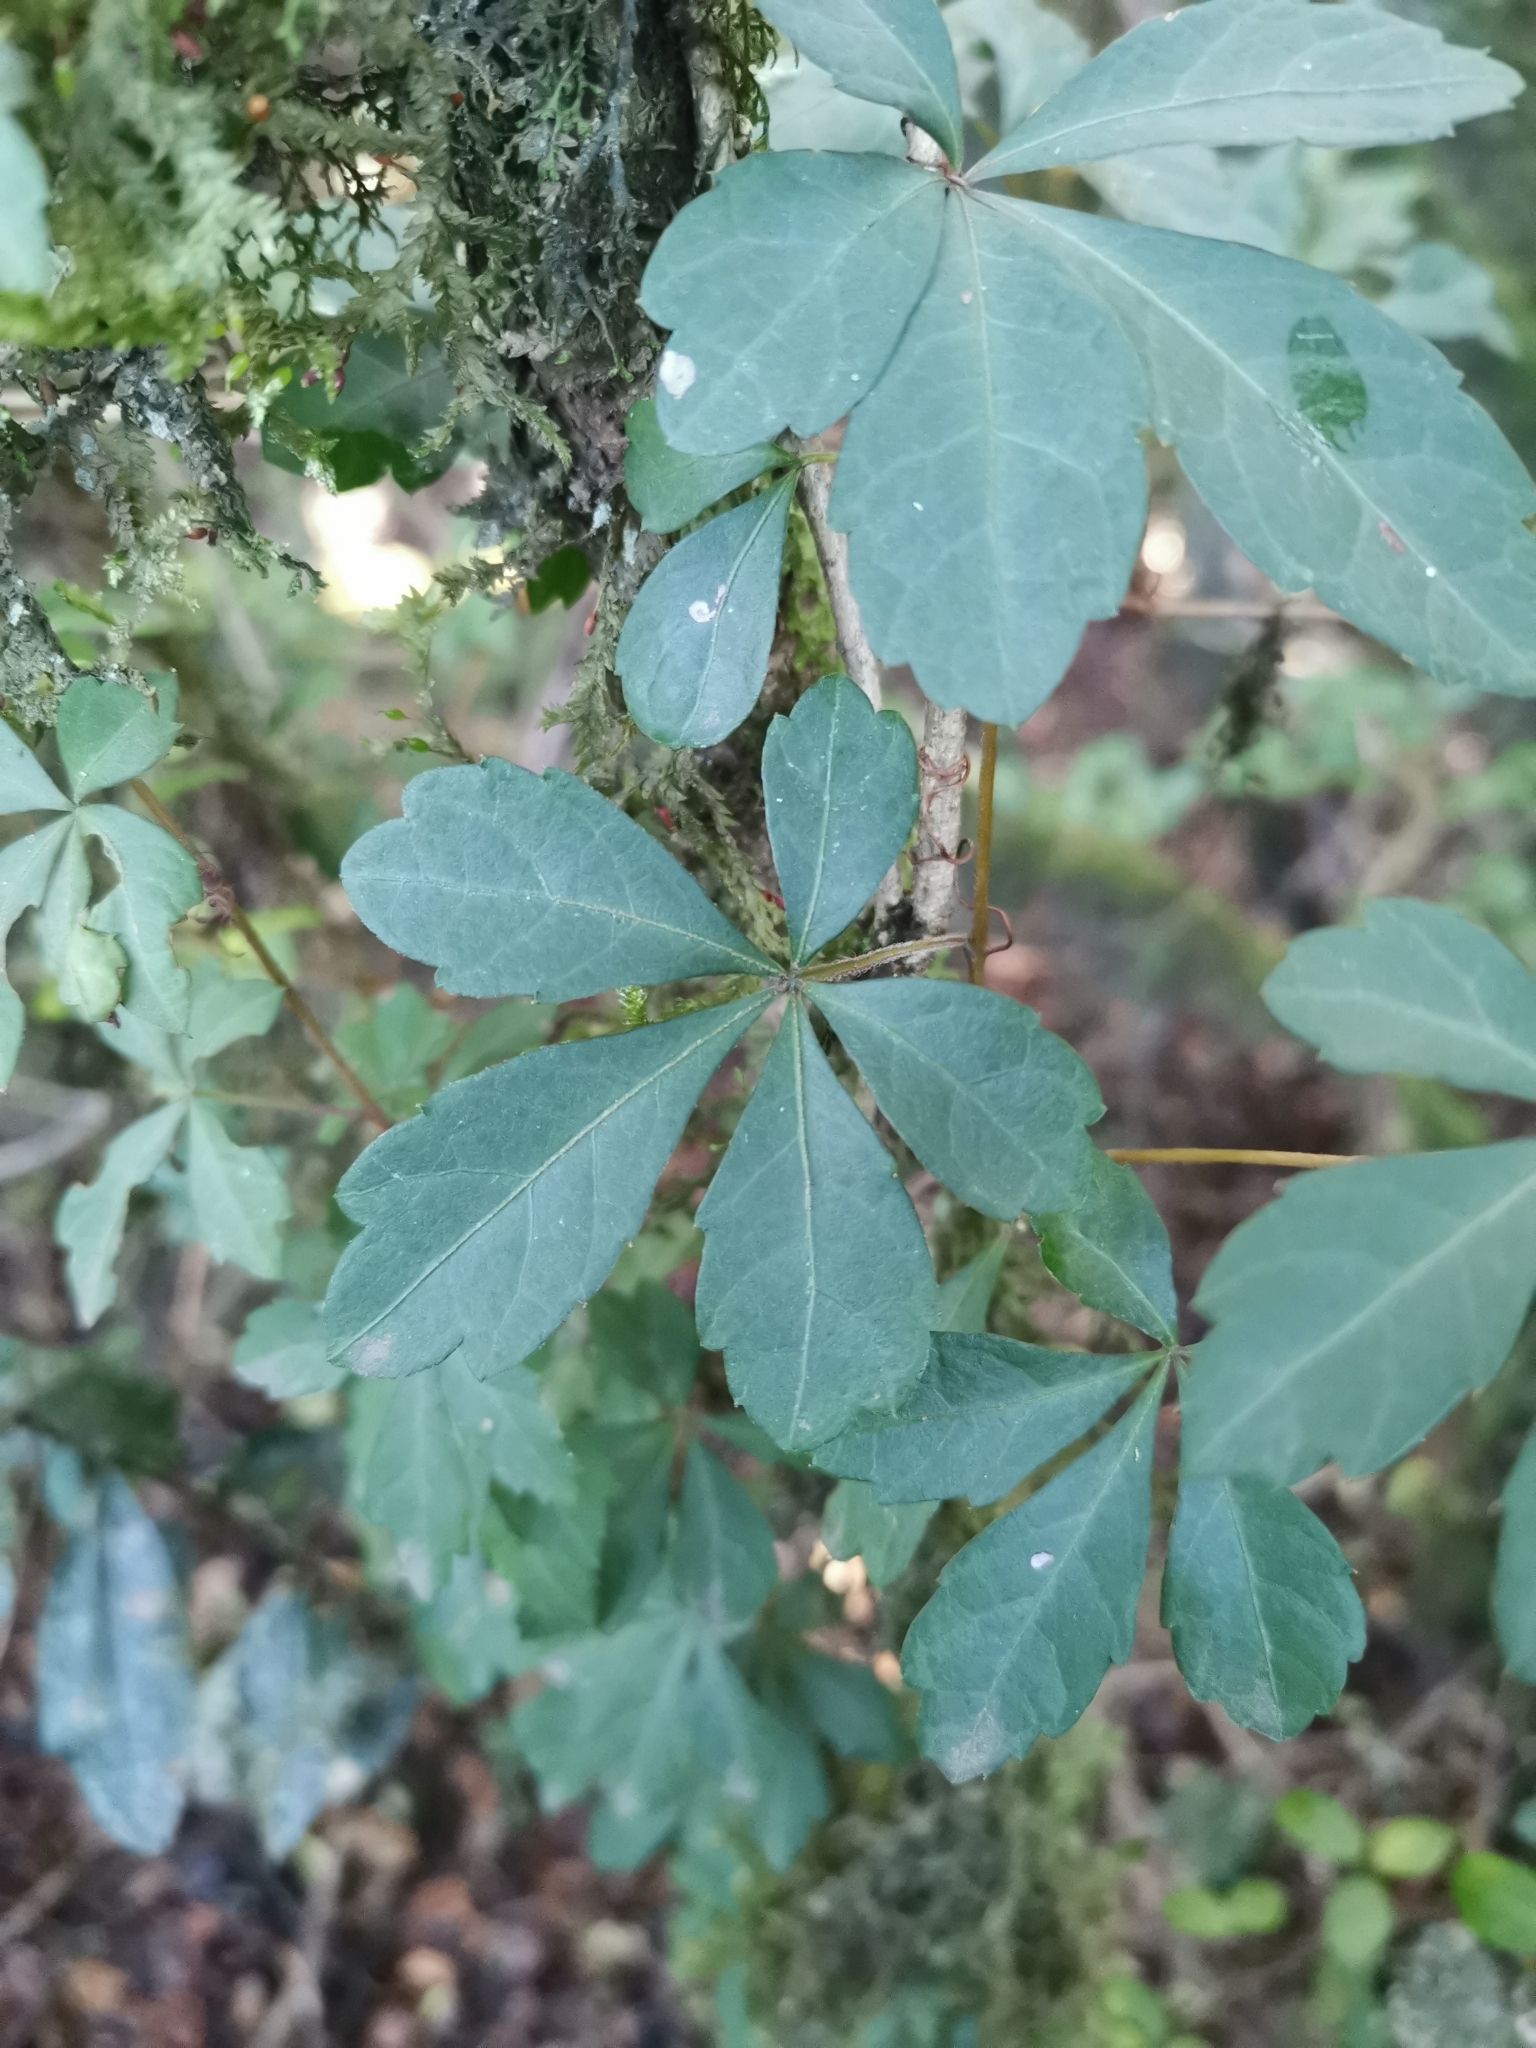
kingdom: Plantae
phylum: Tracheophyta
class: Magnoliopsida
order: Vitales
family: Vitaceae
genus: Clematicissus
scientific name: Clematicissus striata
